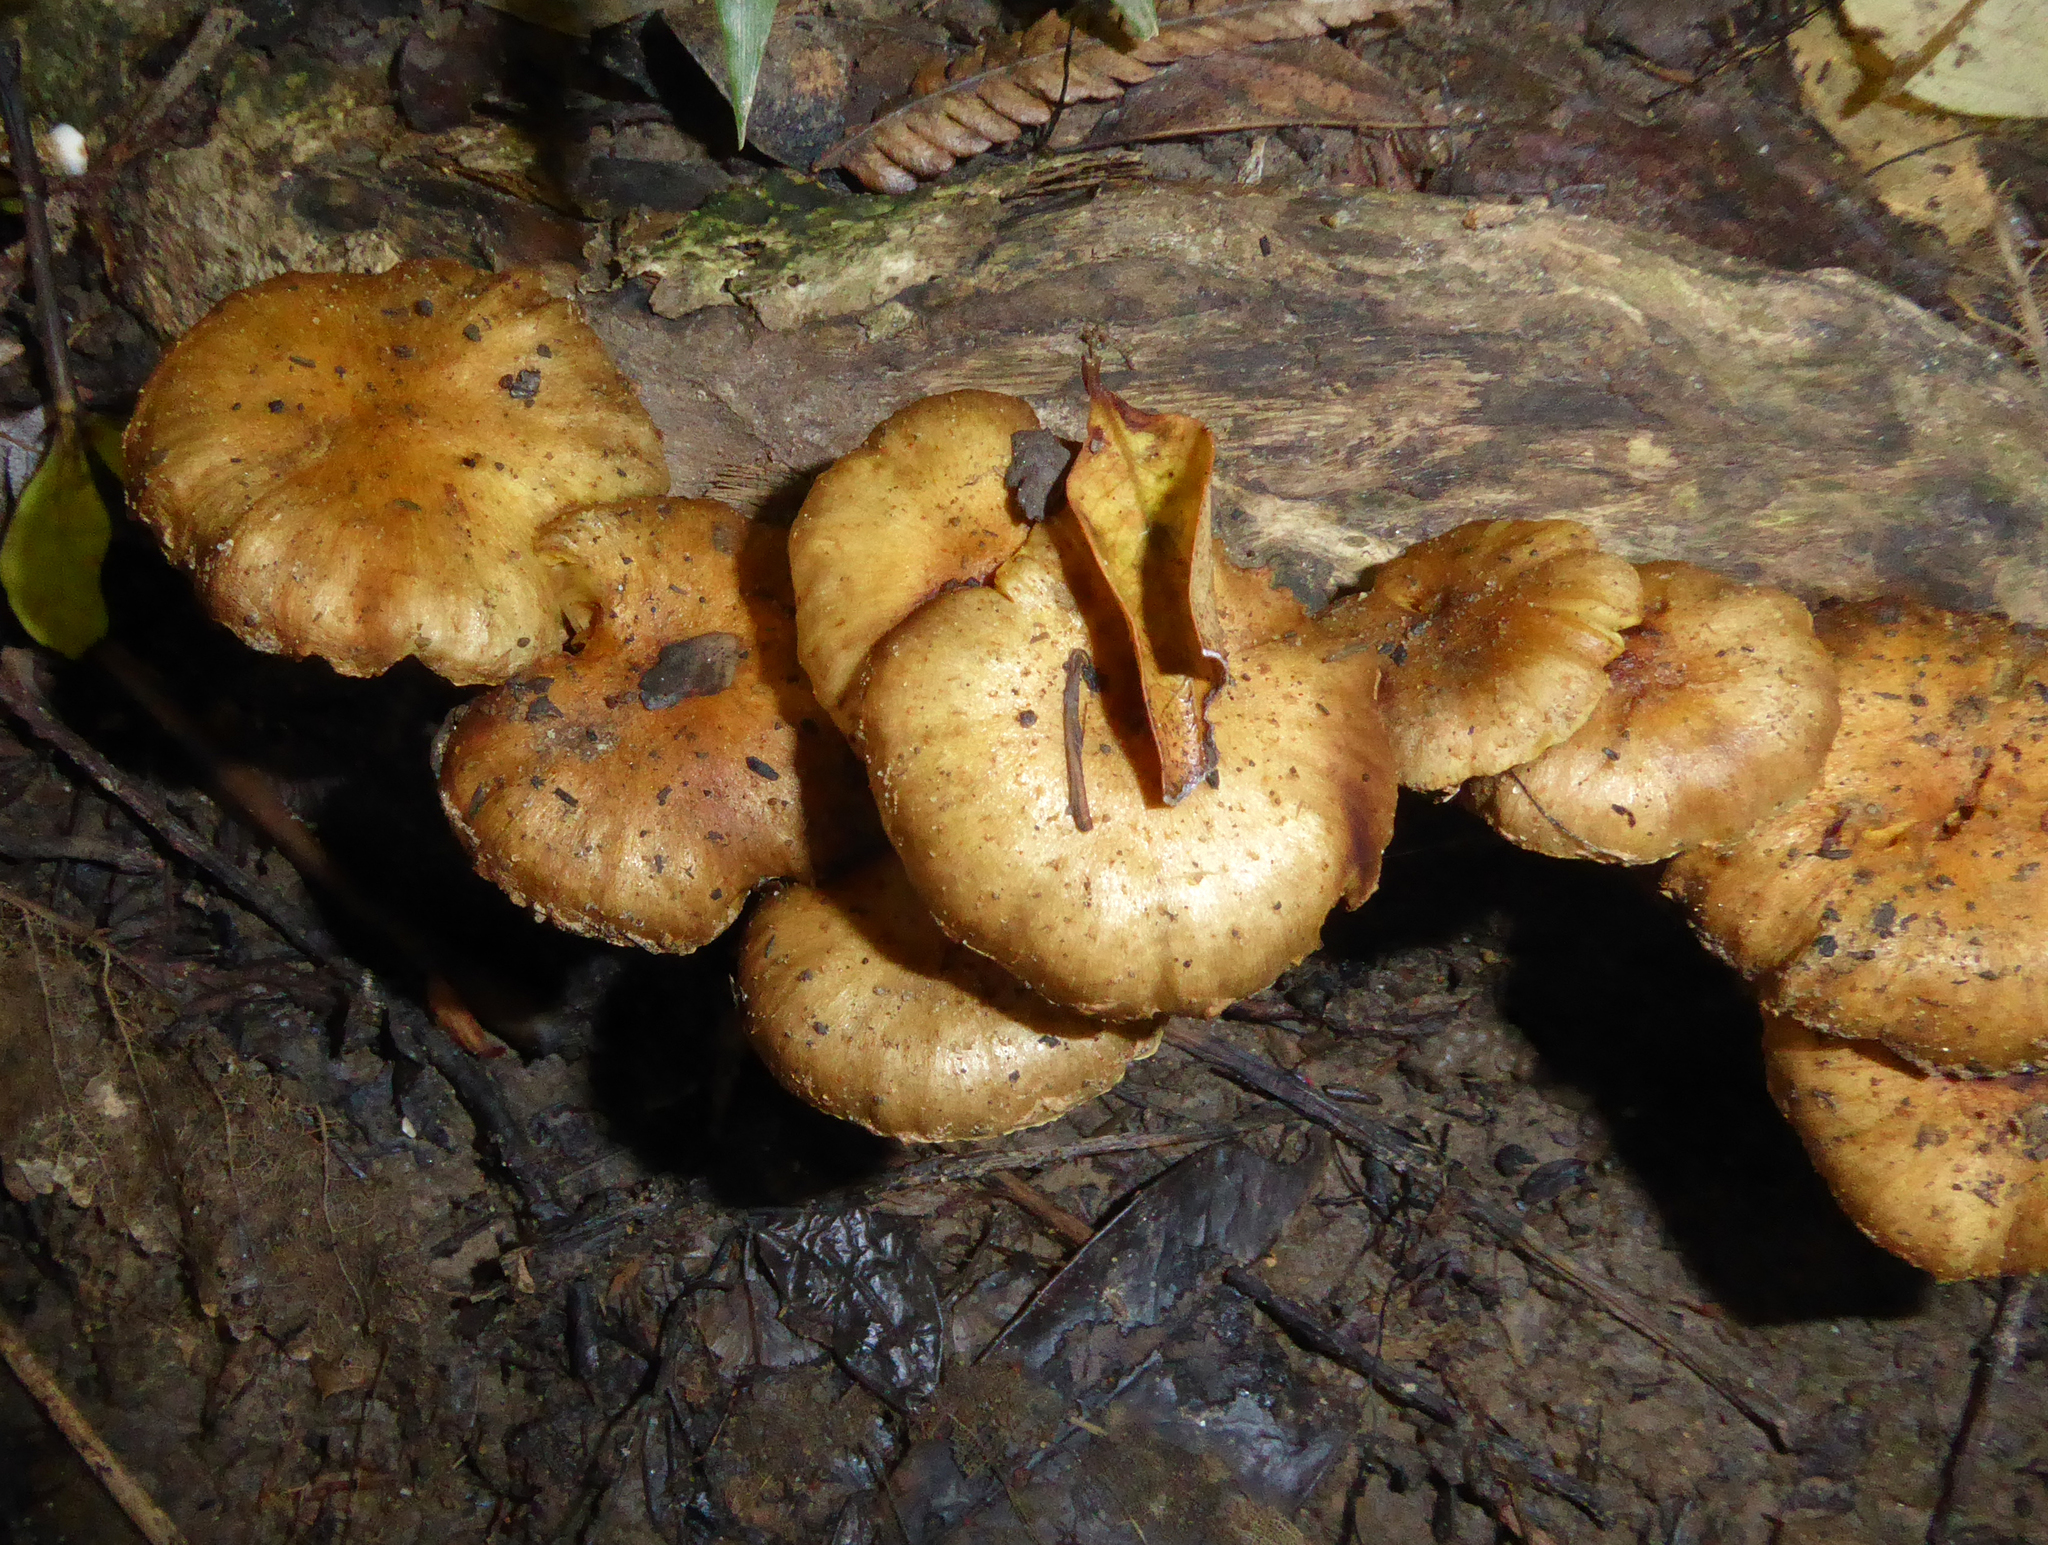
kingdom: Fungi
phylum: Basidiomycota
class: Agaricomycetes
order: Agaricales
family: Strophariaceae
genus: Pholiota
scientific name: Pholiota subflammans
